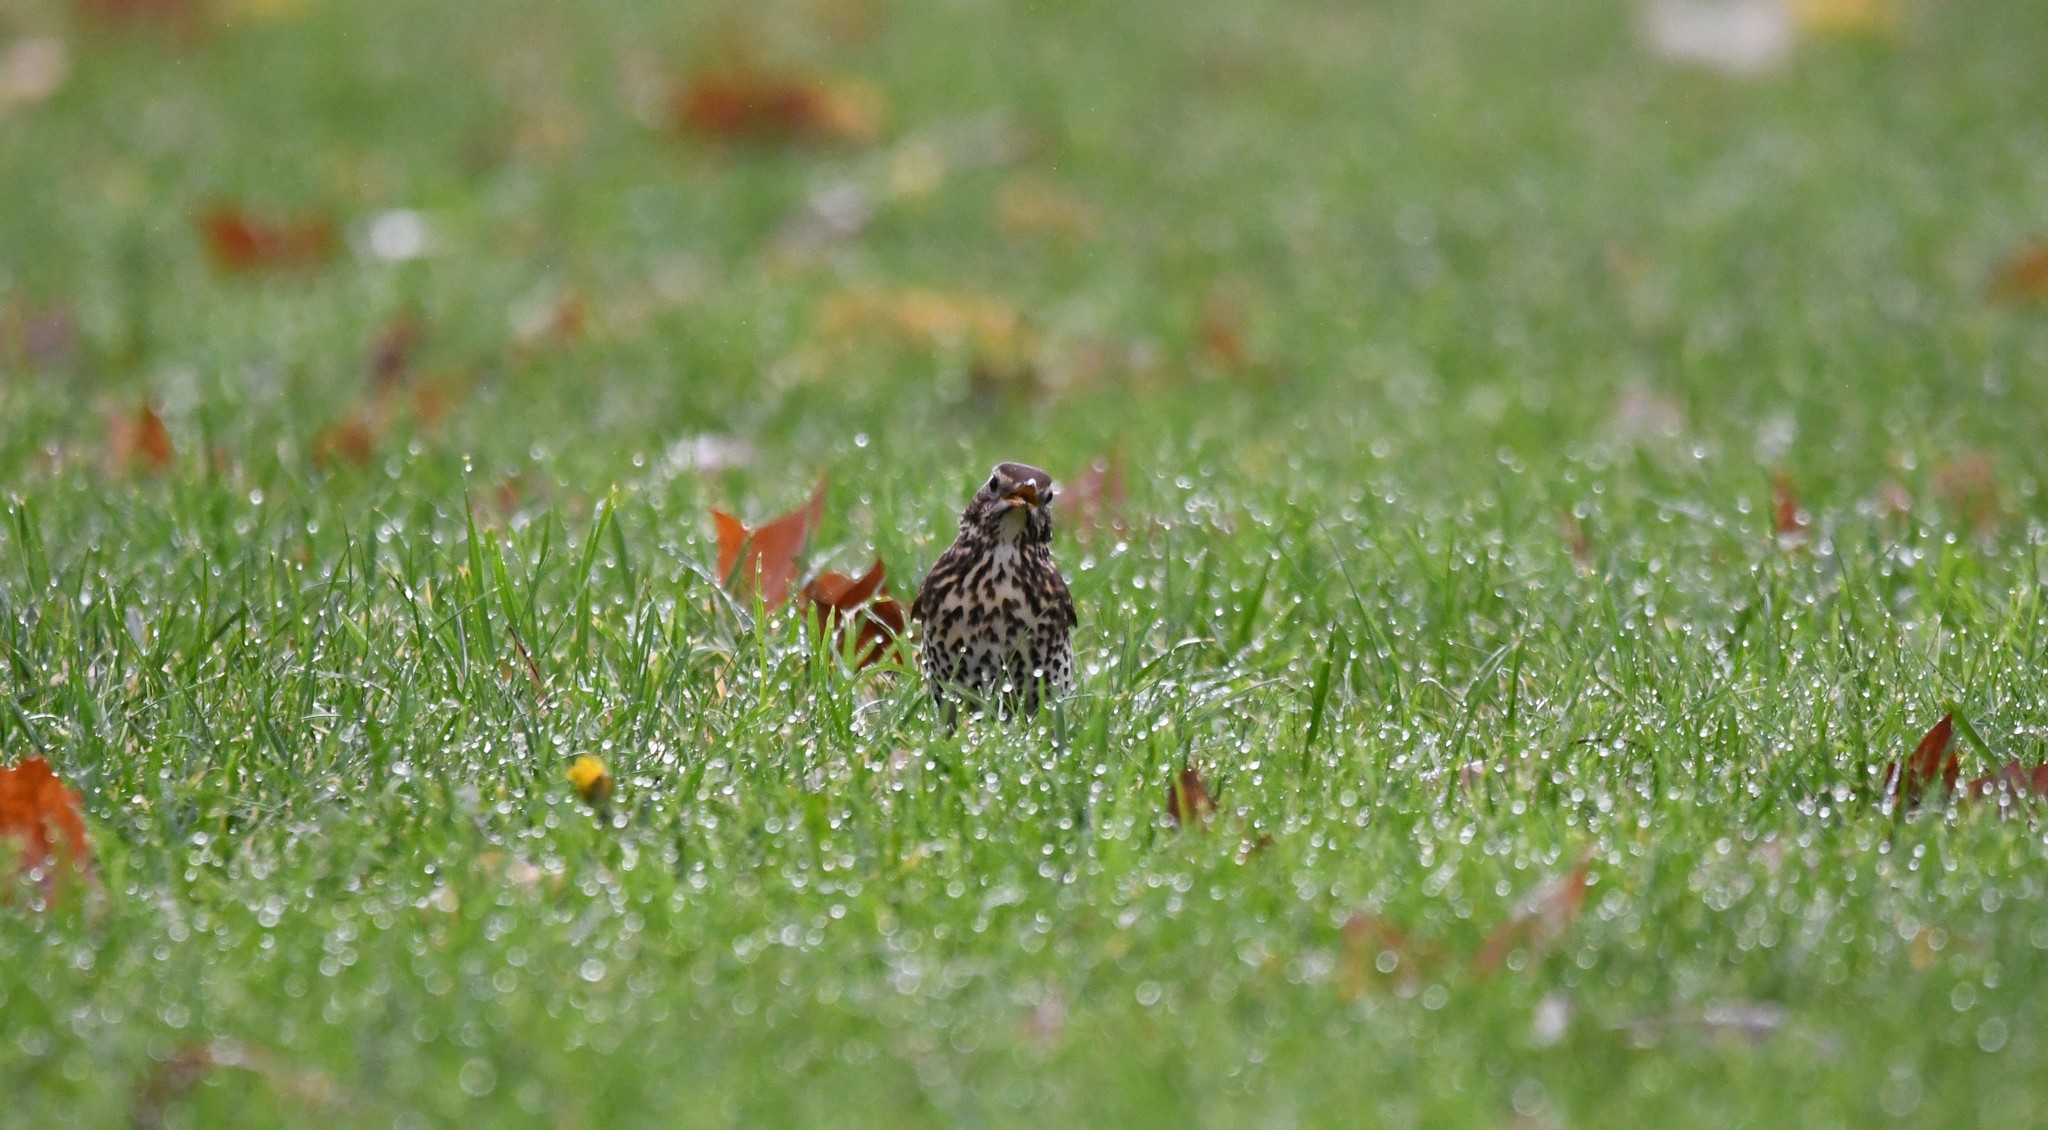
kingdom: Animalia
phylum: Chordata
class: Aves
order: Passeriformes
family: Turdidae
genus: Turdus
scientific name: Turdus philomelos
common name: Song thrush
